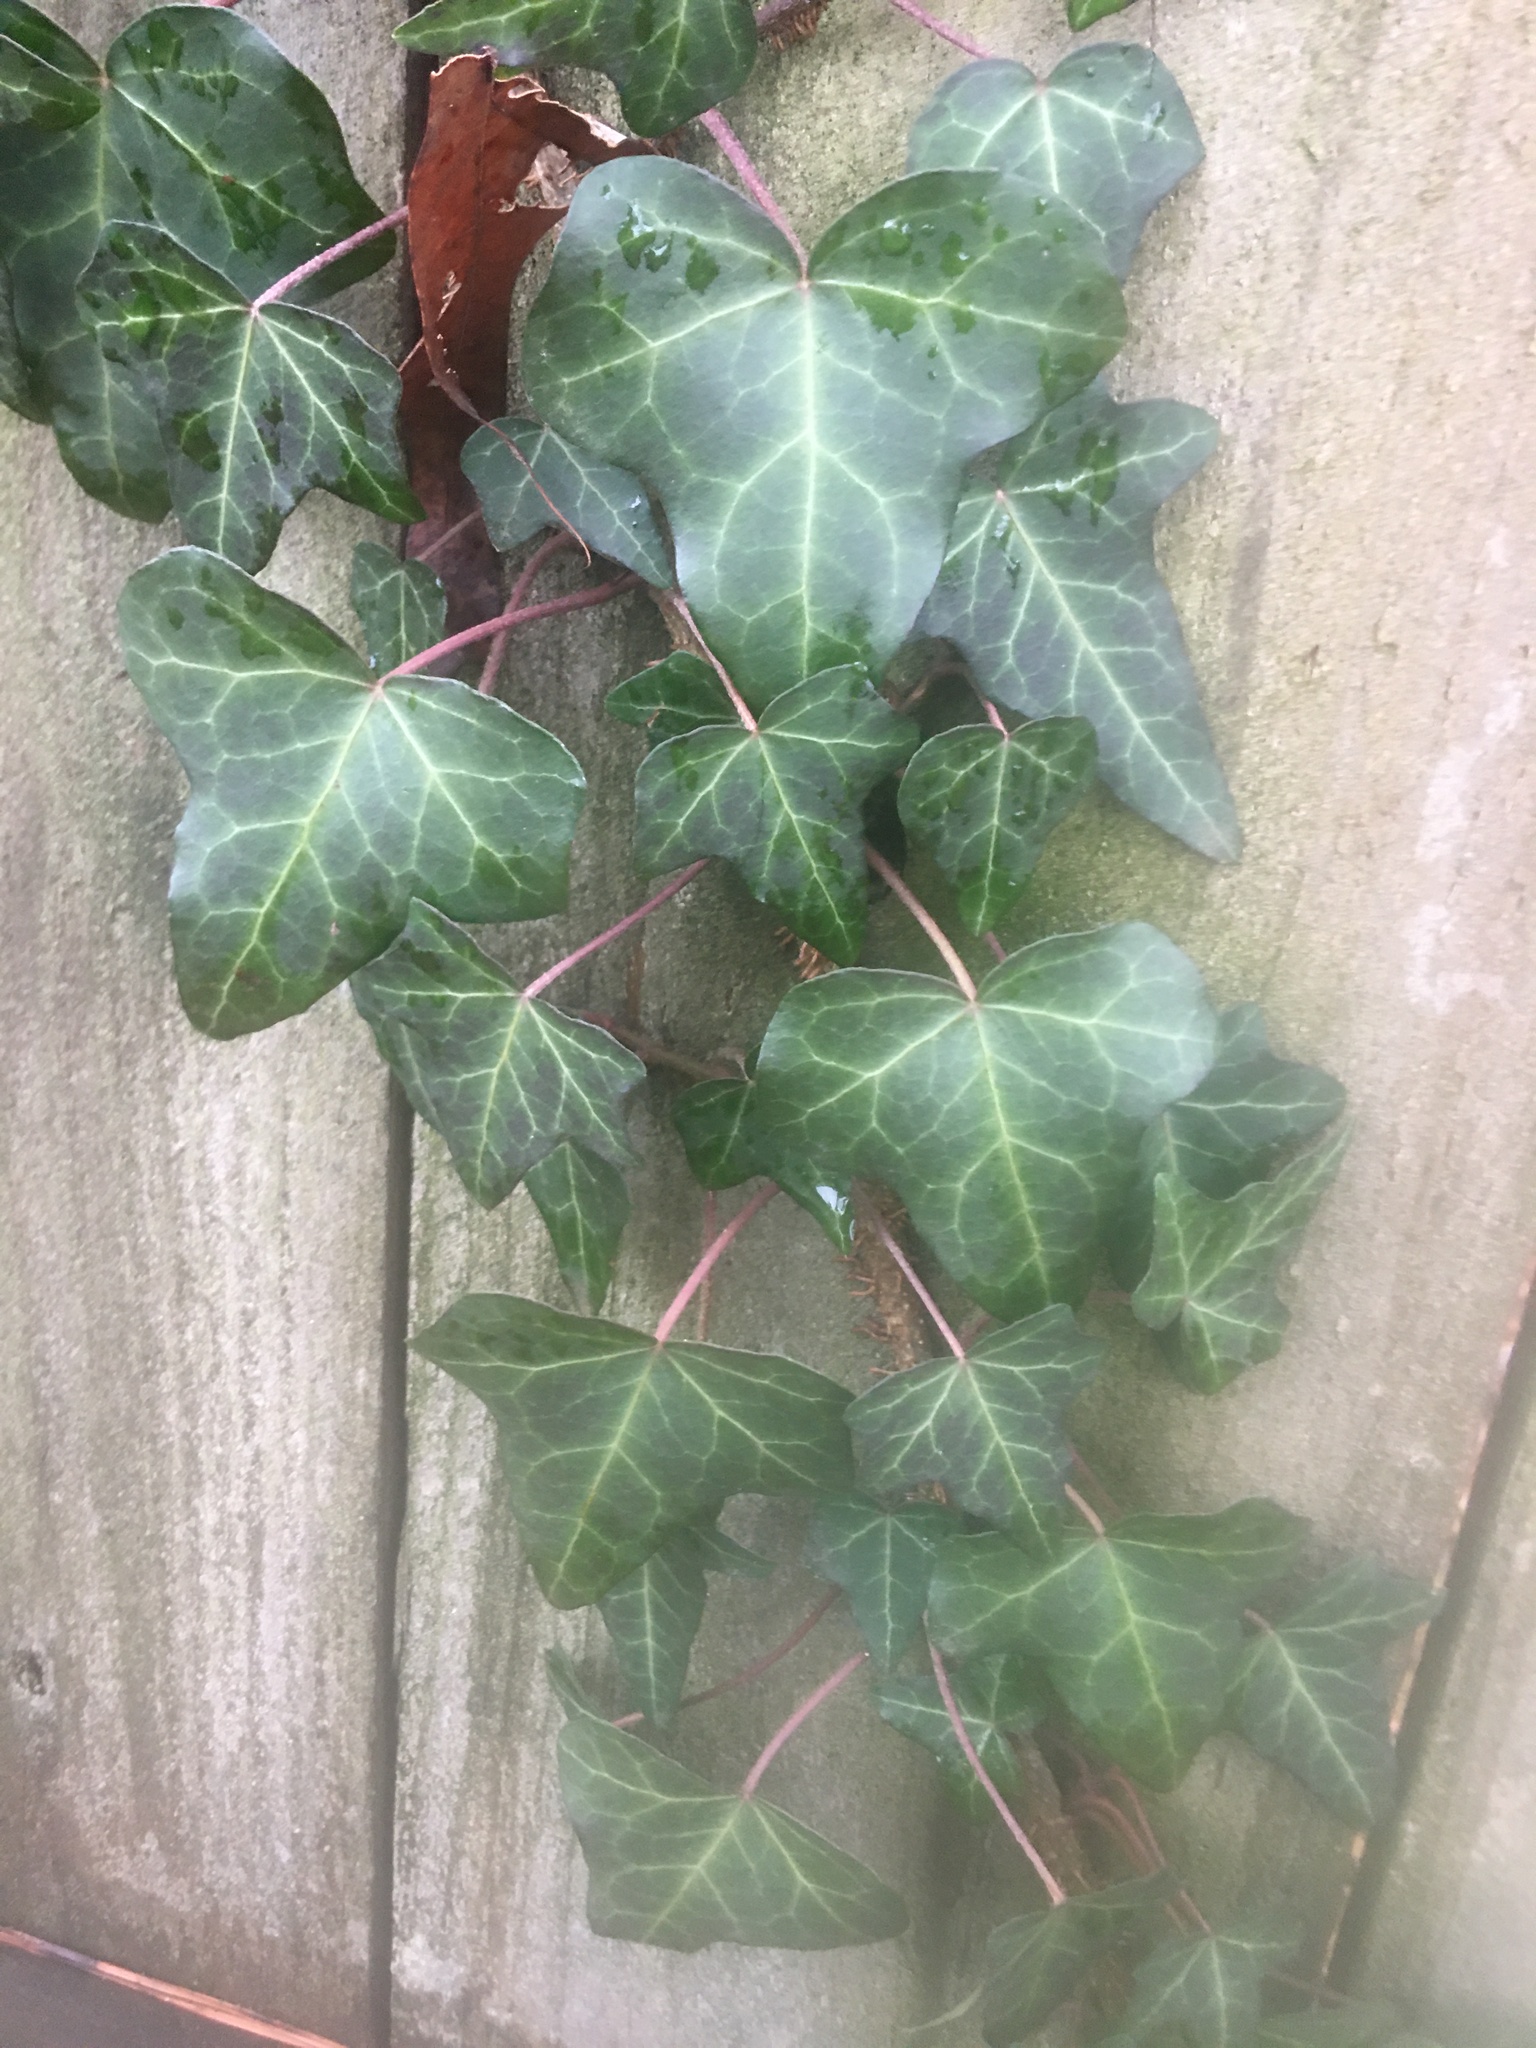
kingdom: Plantae
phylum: Tracheophyta
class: Magnoliopsida
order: Apiales
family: Araliaceae
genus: Hedera
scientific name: Hedera helix
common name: Ivy
